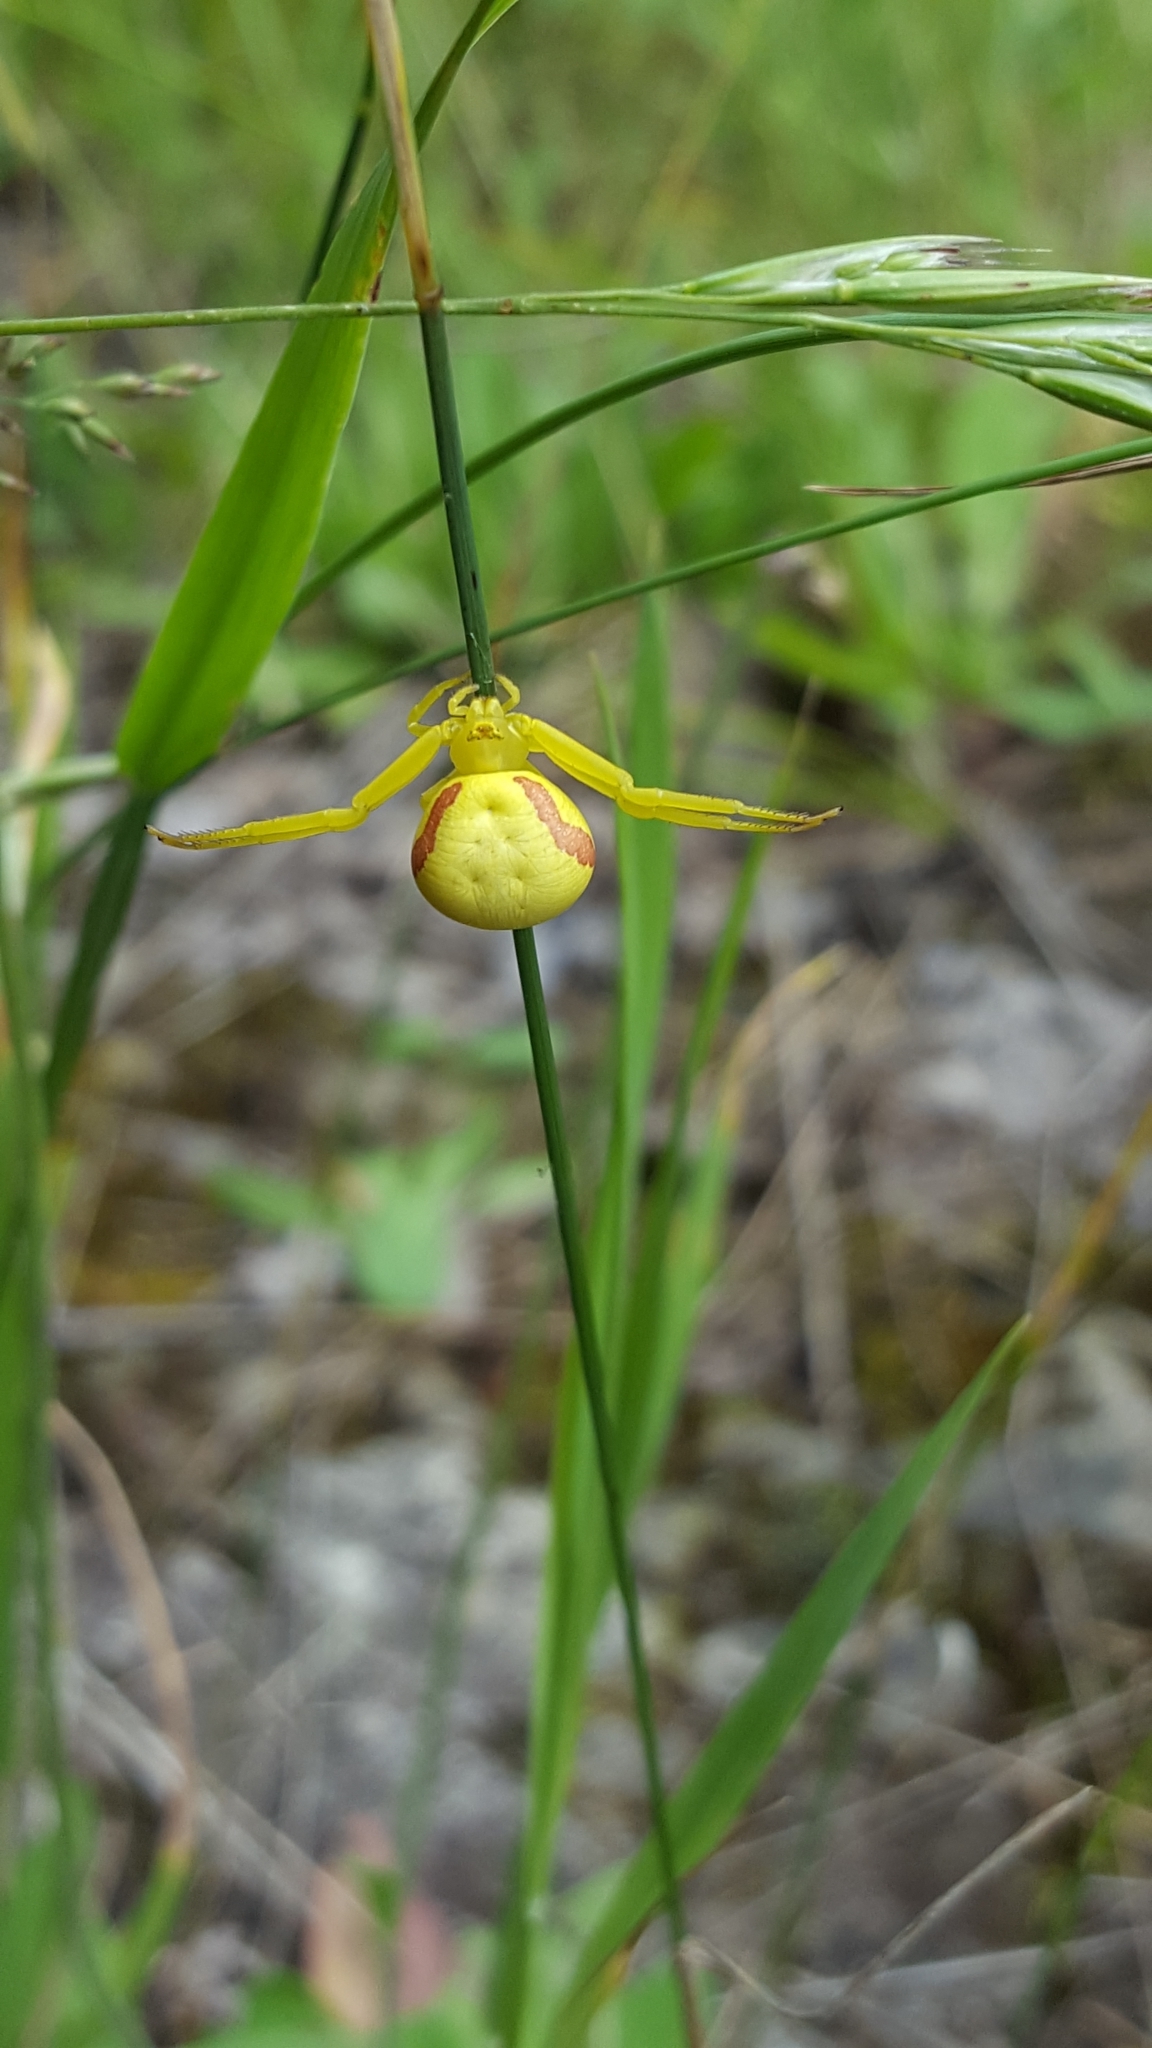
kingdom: Animalia
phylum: Arthropoda
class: Arachnida
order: Araneae
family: Thomisidae
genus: Misumena
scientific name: Misumena vatia
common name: Goldenrod crab spider
